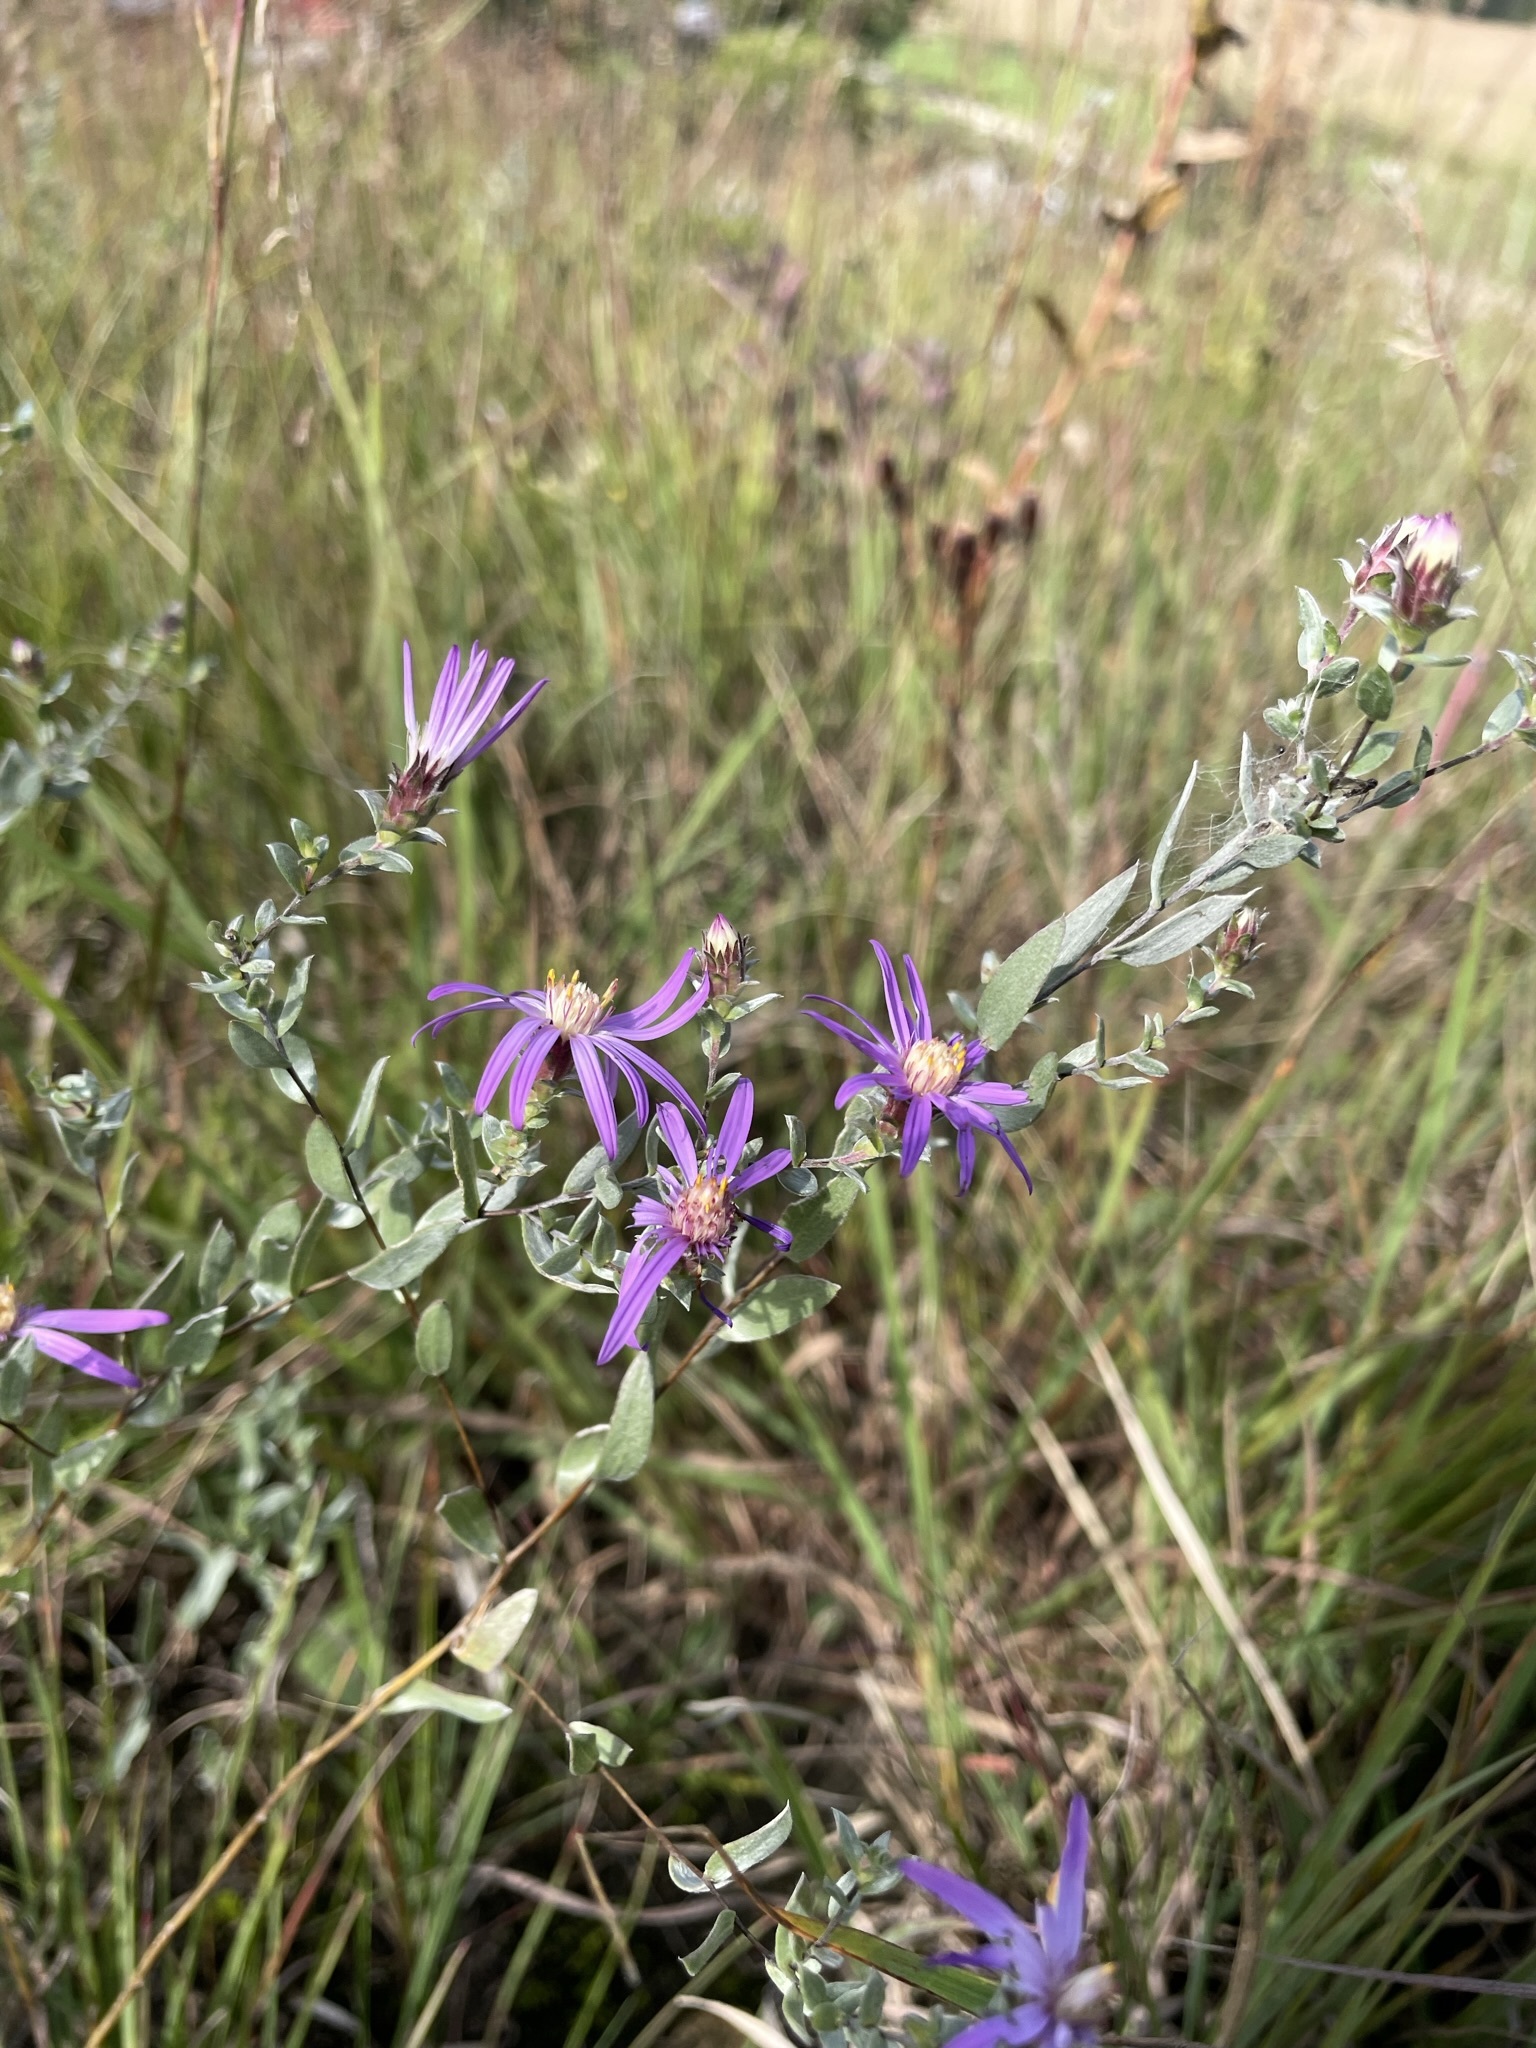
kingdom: Plantae
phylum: Tracheophyta
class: Magnoliopsida
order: Asterales
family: Asteraceae
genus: Symphyotrichum
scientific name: Symphyotrichum sericeum
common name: Silky aster
